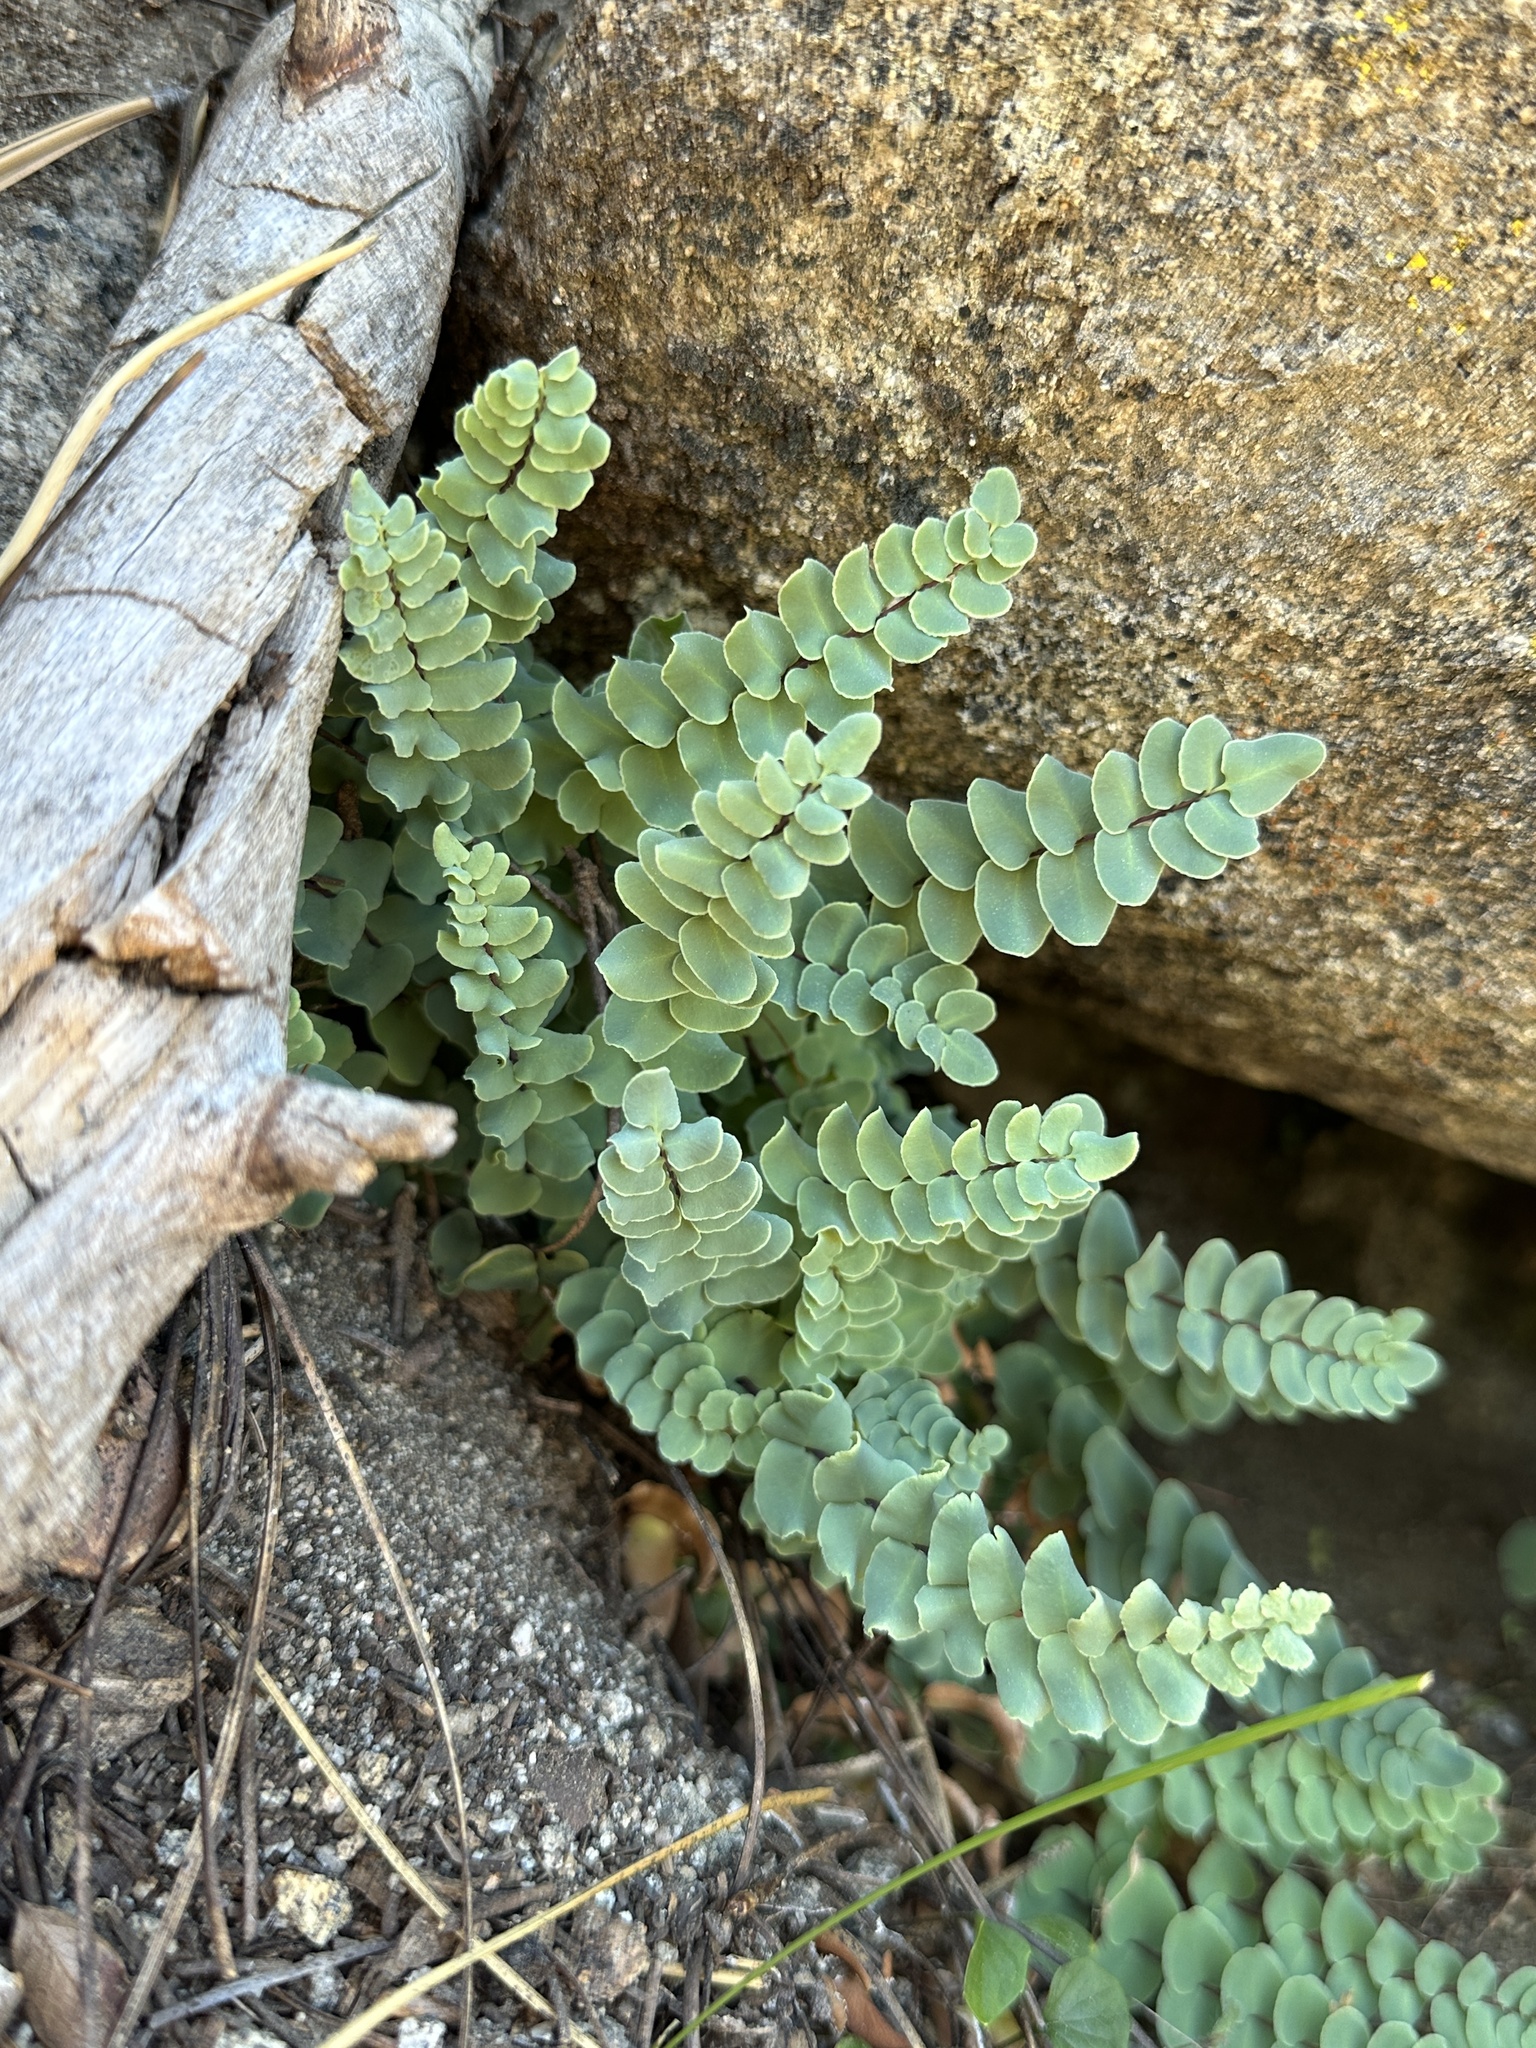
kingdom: Plantae
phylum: Tracheophyta
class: Polypodiopsida
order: Polypodiales
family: Pteridaceae
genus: Pellaea
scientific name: Pellaea bridgesii
